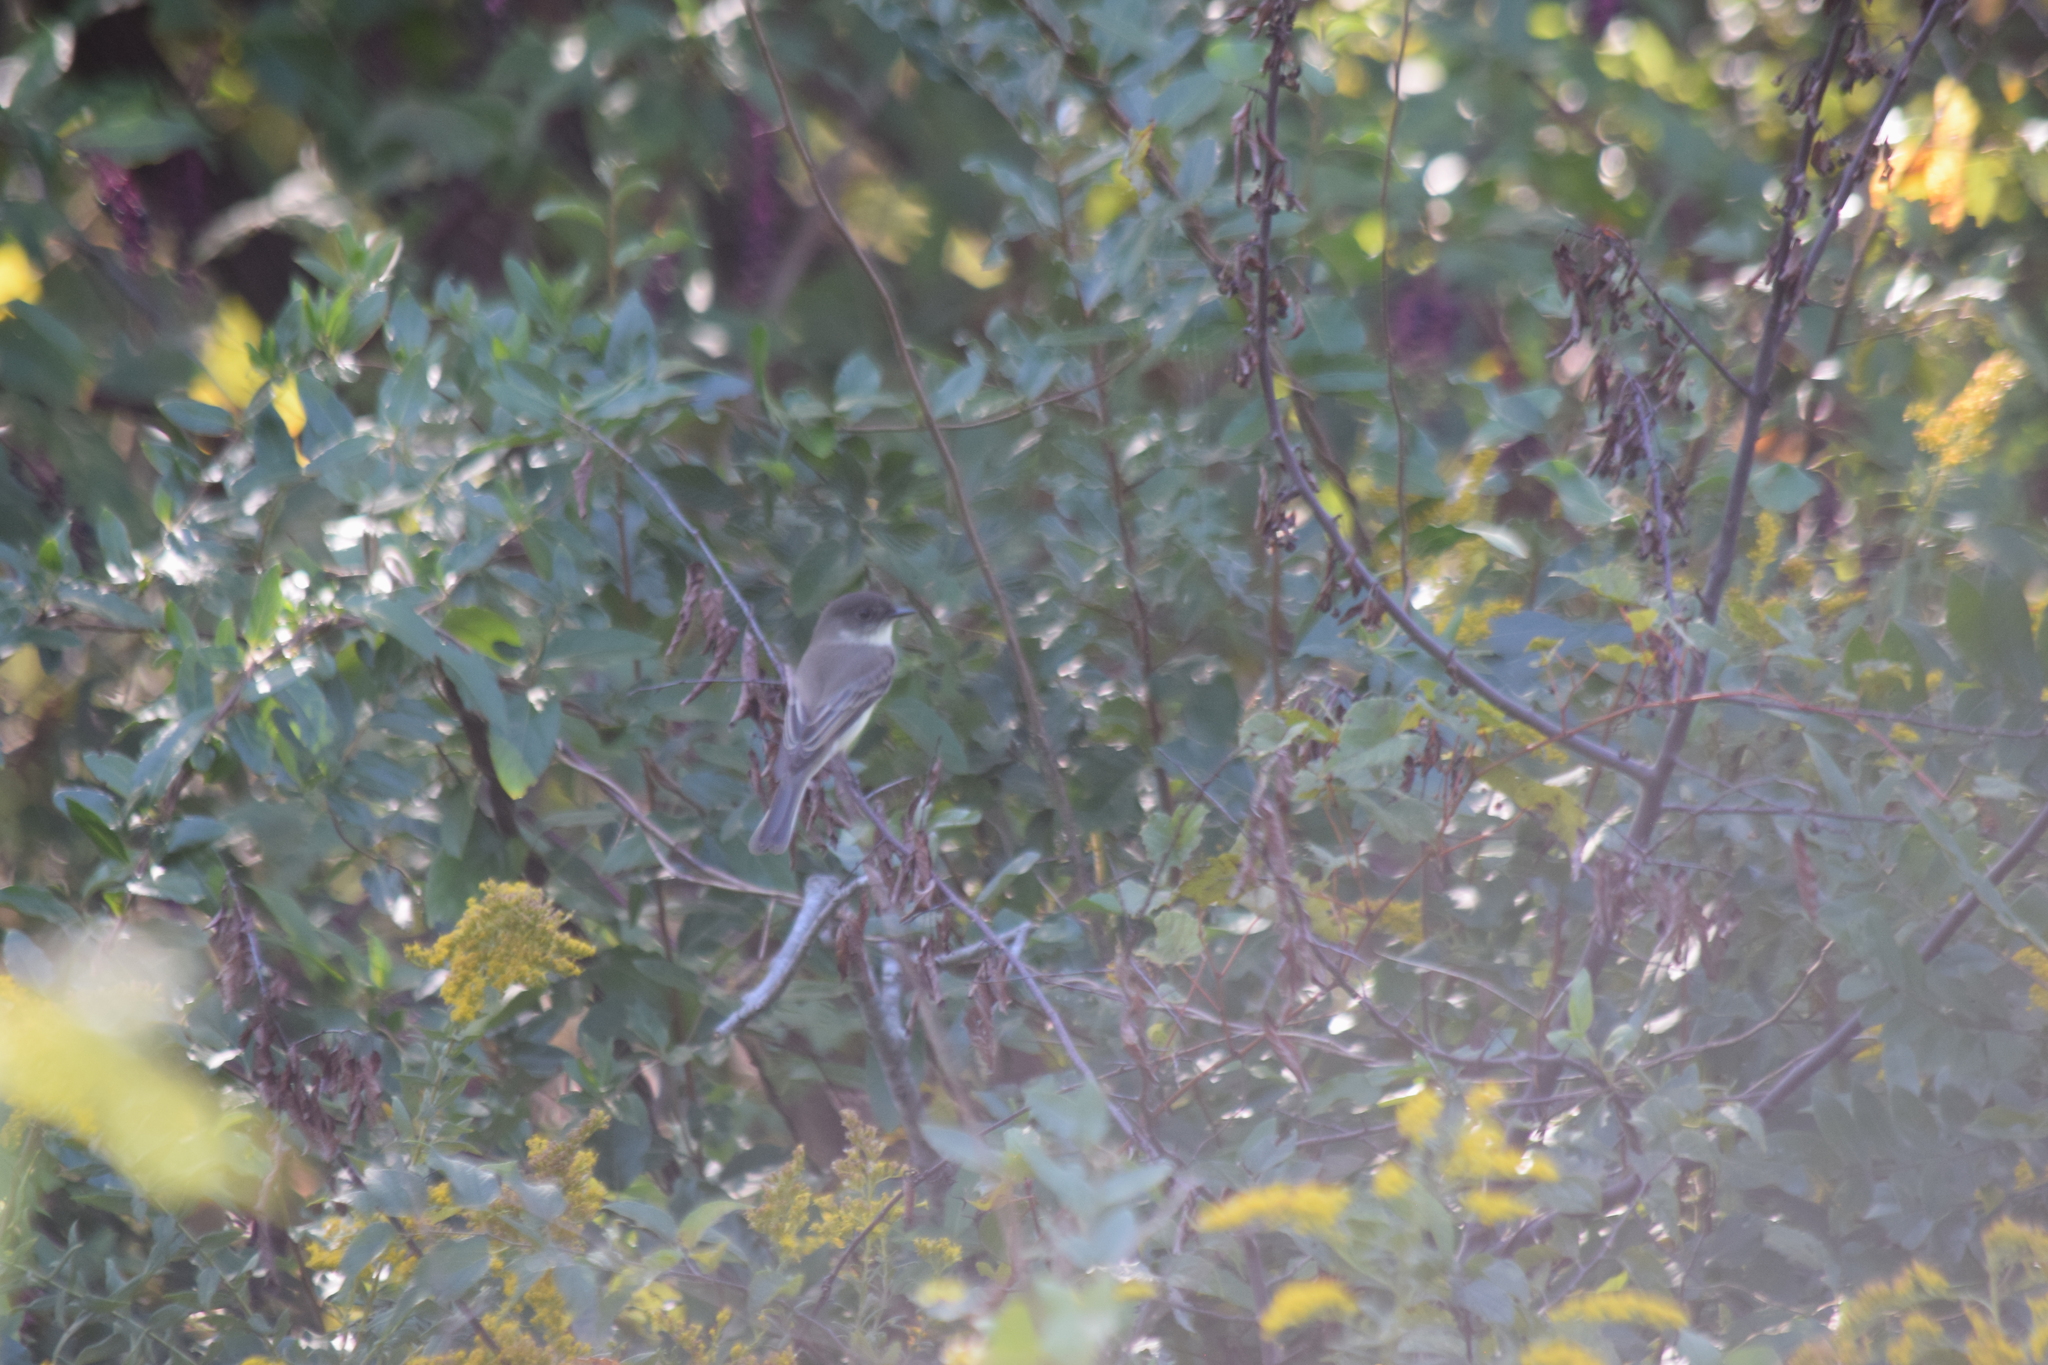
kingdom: Animalia
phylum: Chordata
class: Aves
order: Passeriformes
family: Tyrannidae
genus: Sayornis
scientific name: Sayornis phoebe
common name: Eastern phoebe
